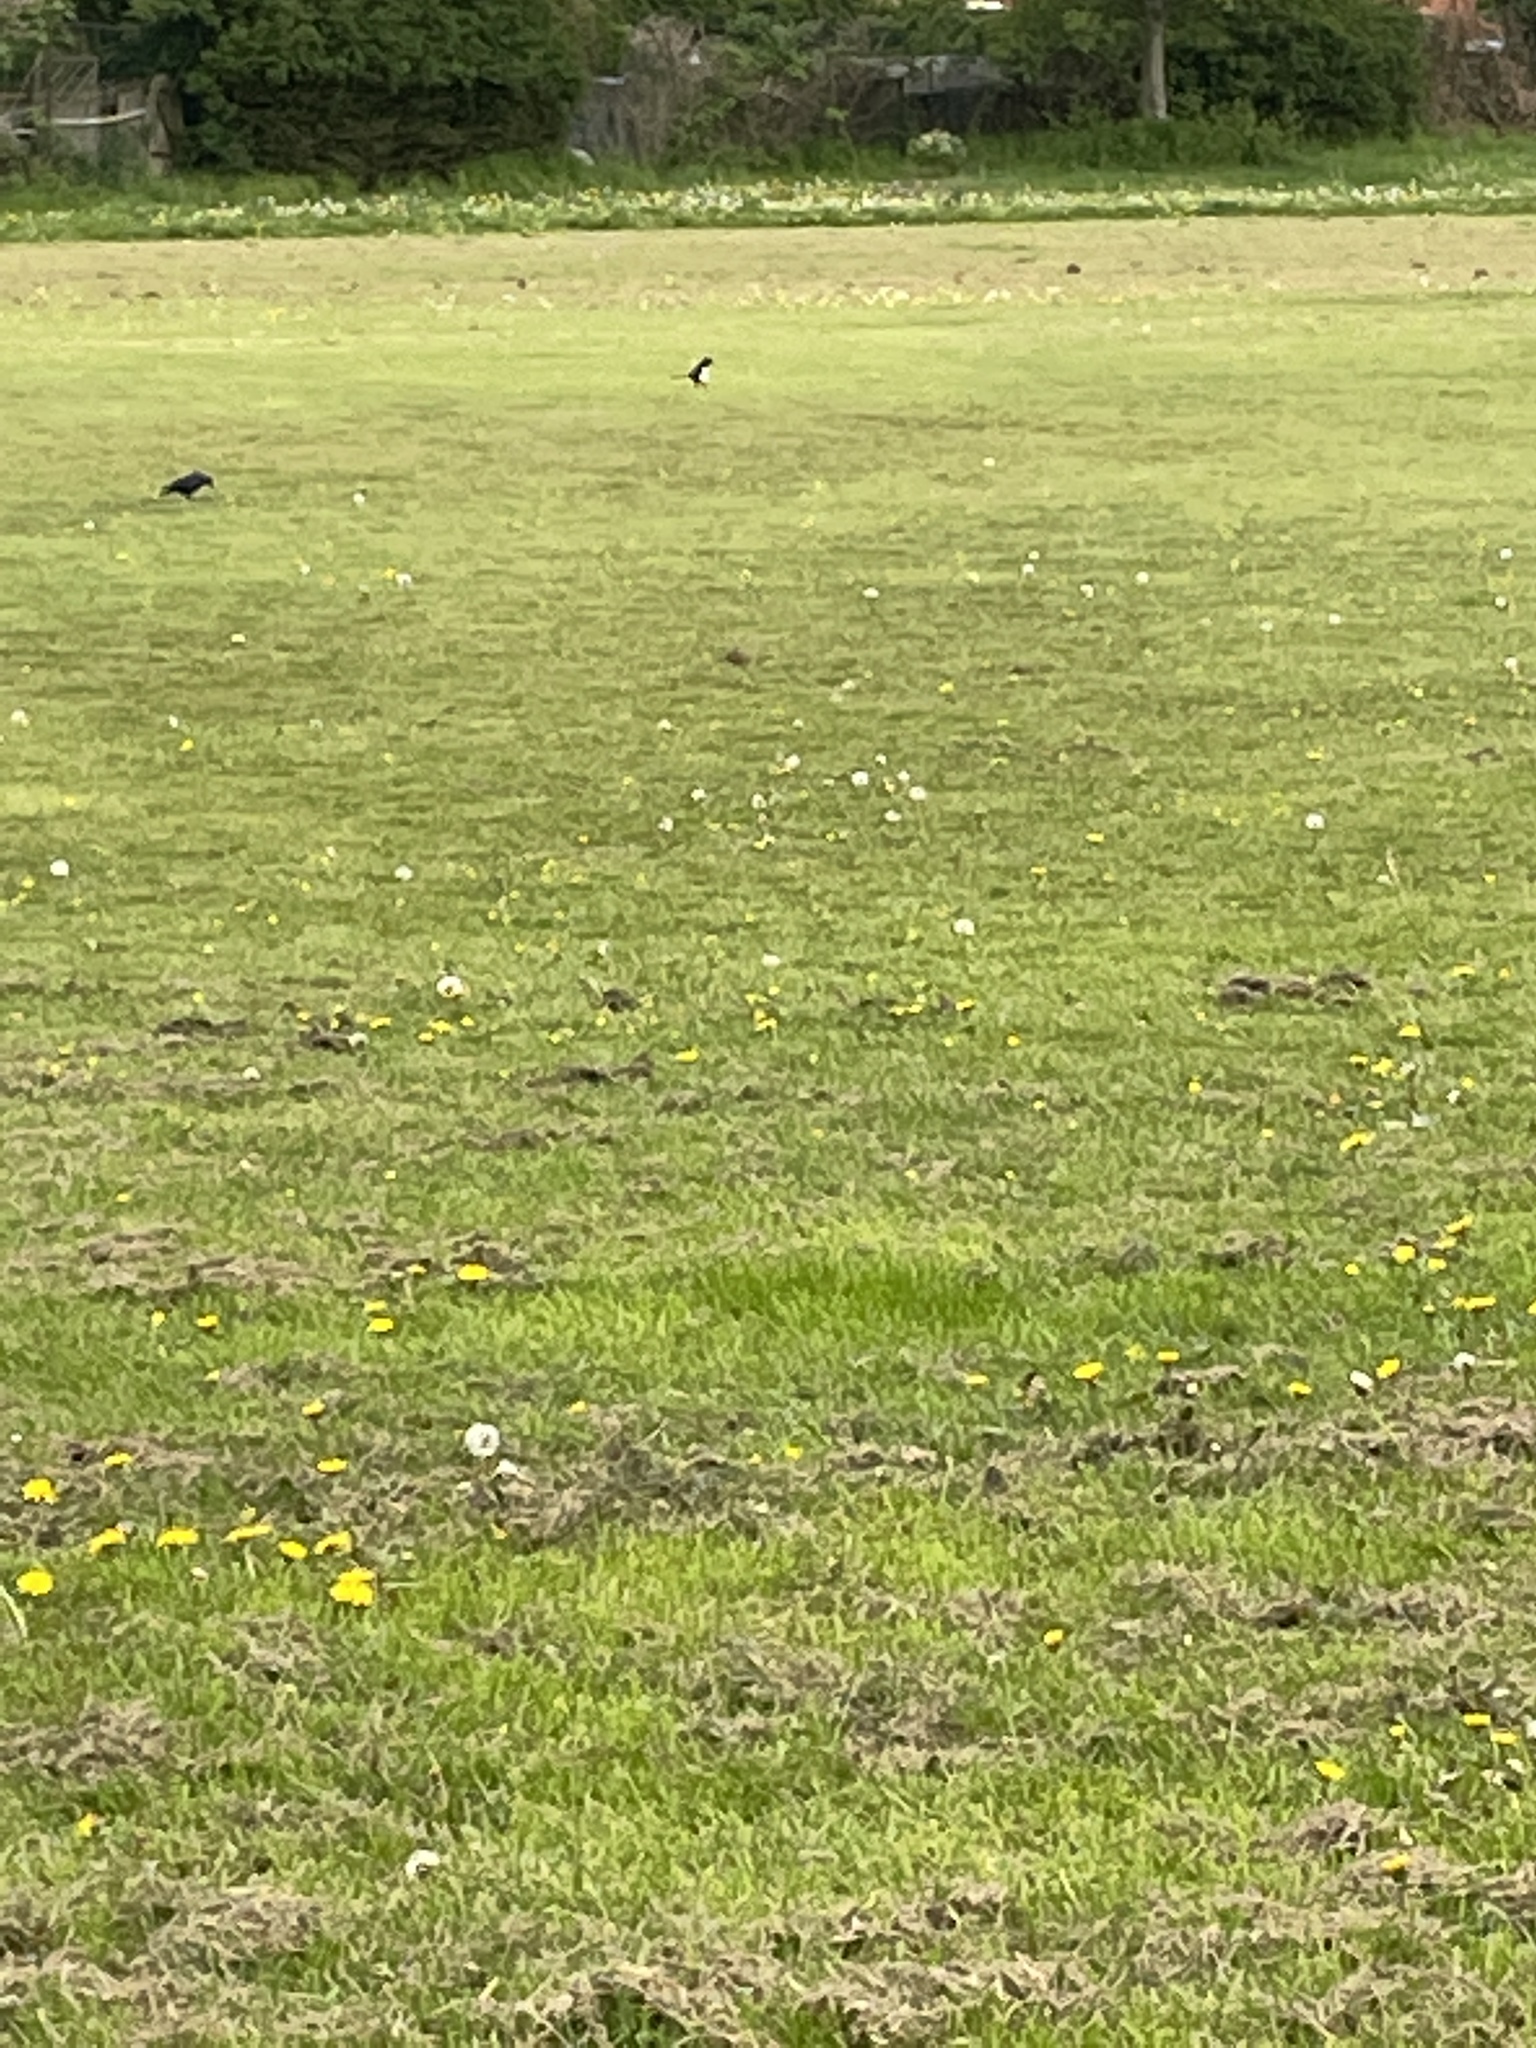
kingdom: Animalia
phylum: Chordata
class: Aves
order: Passeriformes
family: Corvidae
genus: Pica
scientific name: Pica pica
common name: Eurasian magpie
